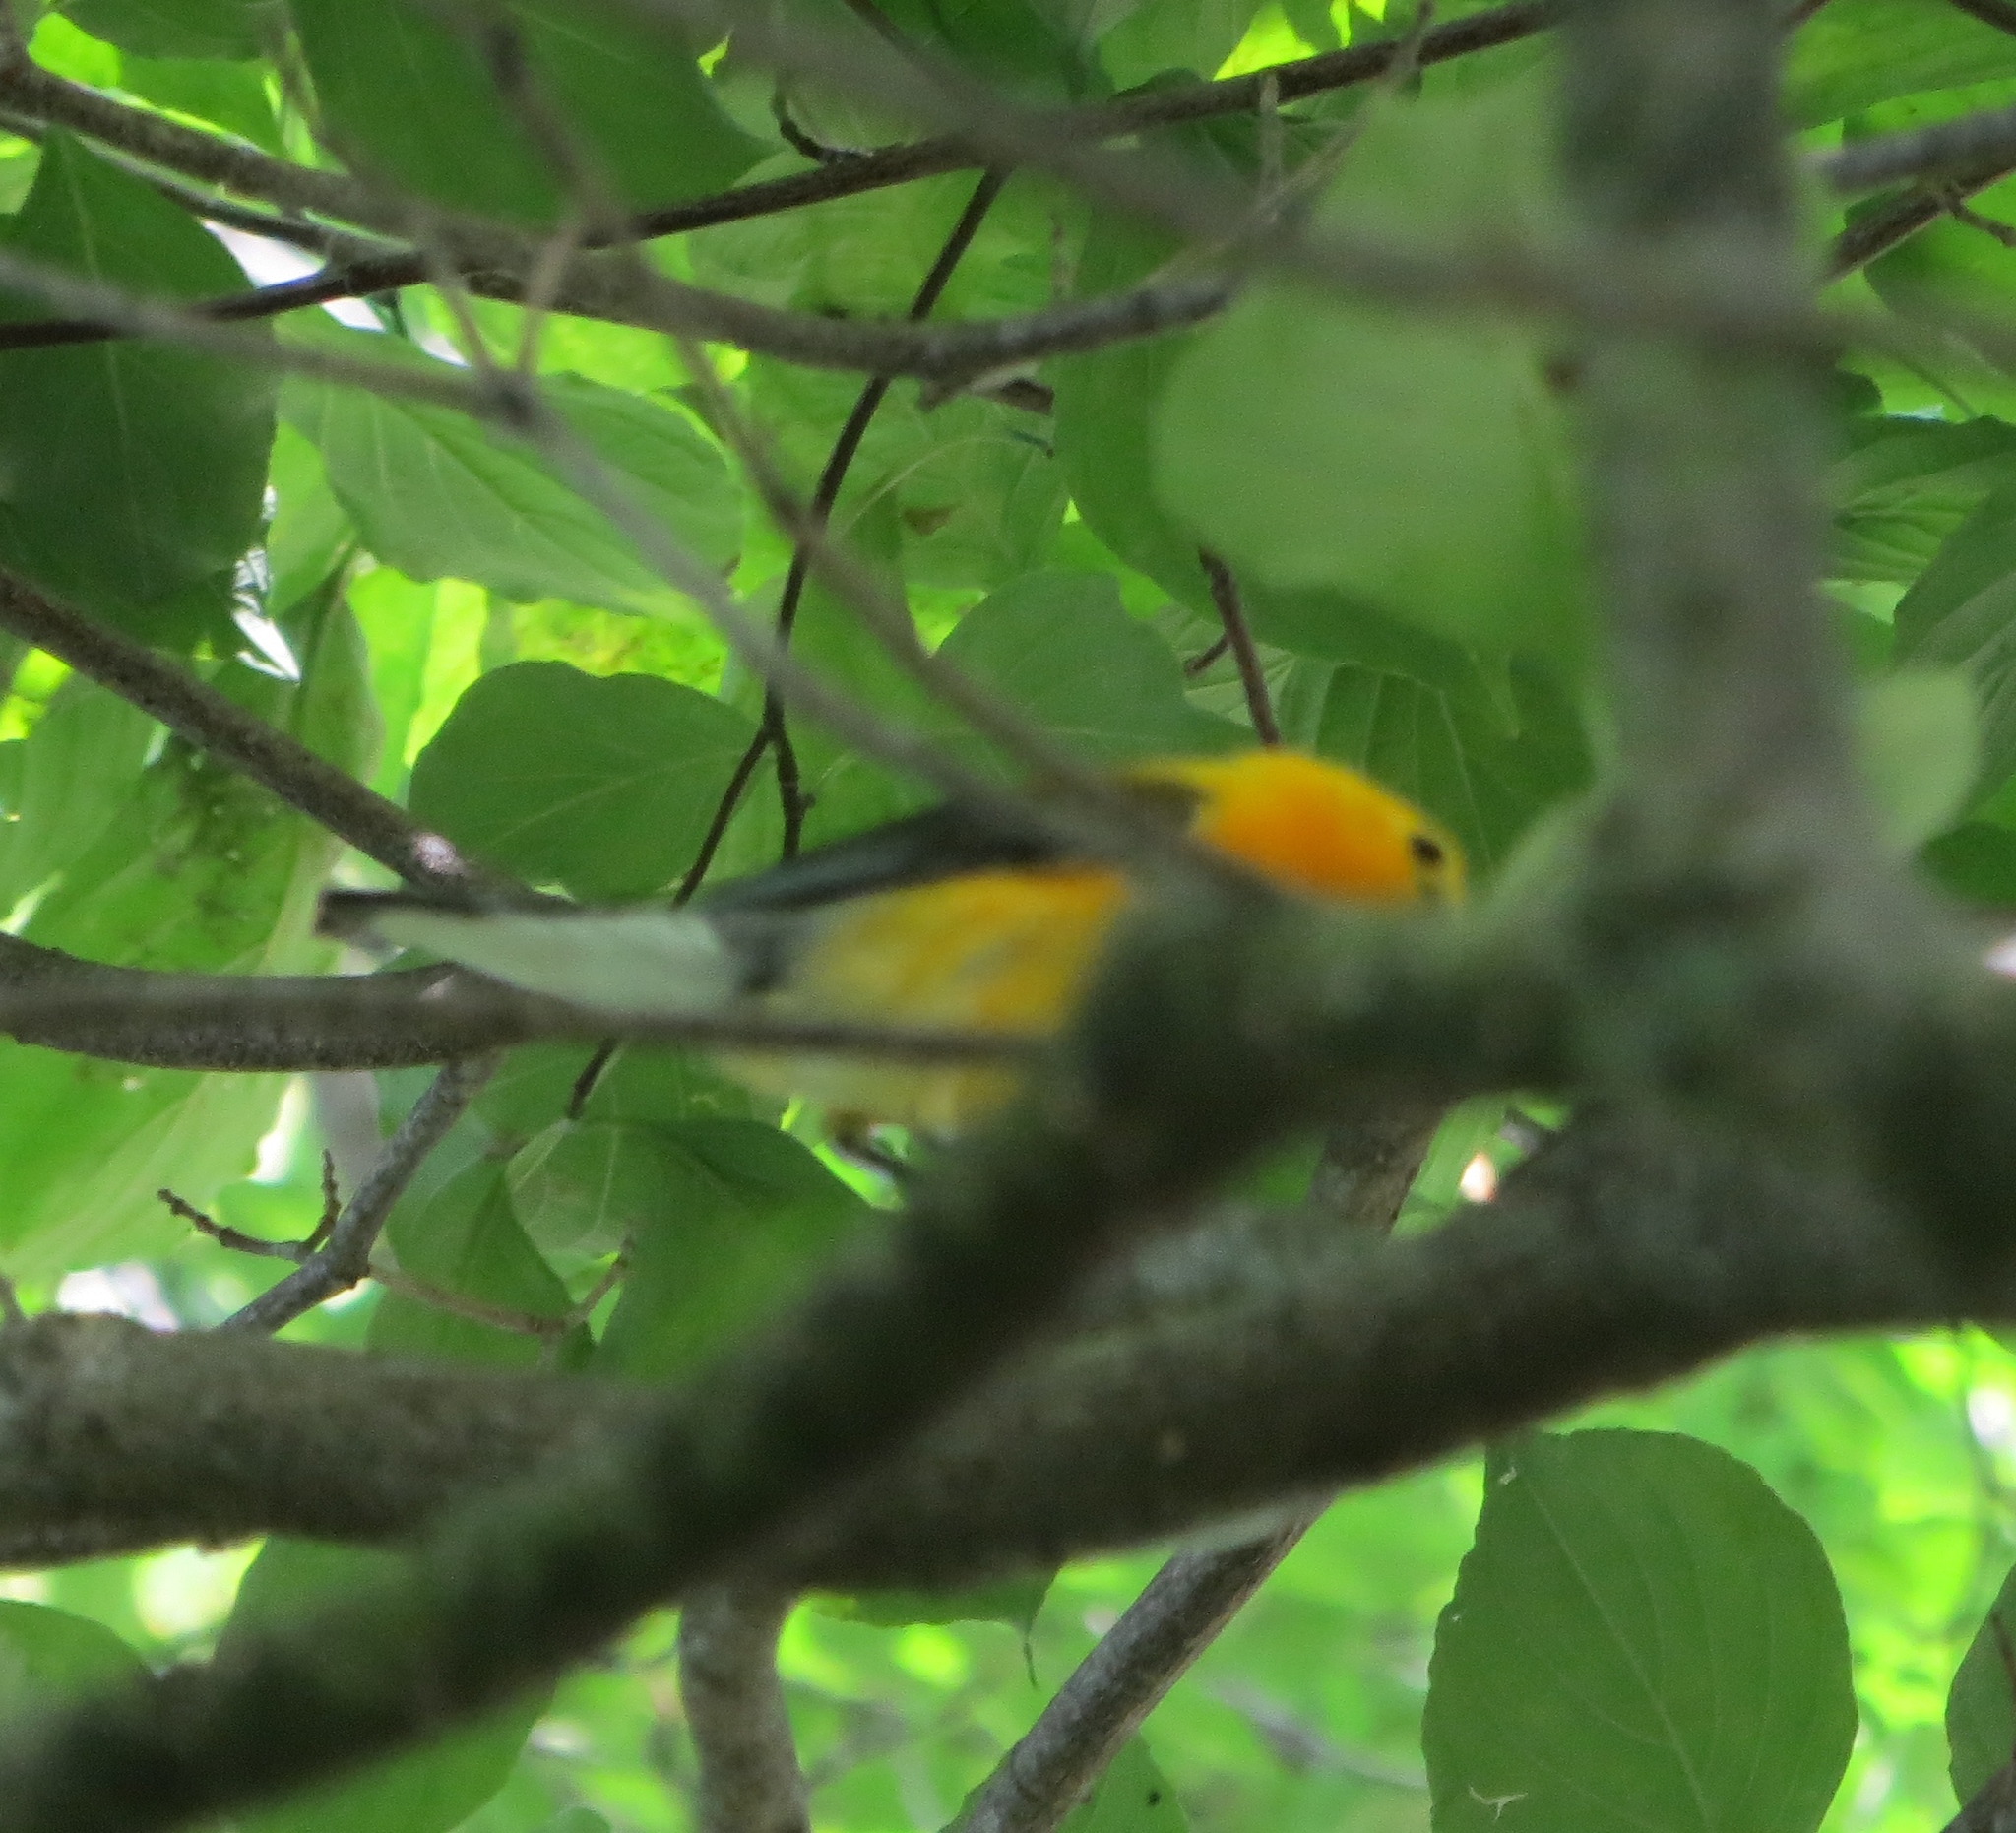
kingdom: Animalia
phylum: Chordata
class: Aves
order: Passeriformes
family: Parulidae
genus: Protonotaria
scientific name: Protonotaria citrea
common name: Prothonotary warbler
